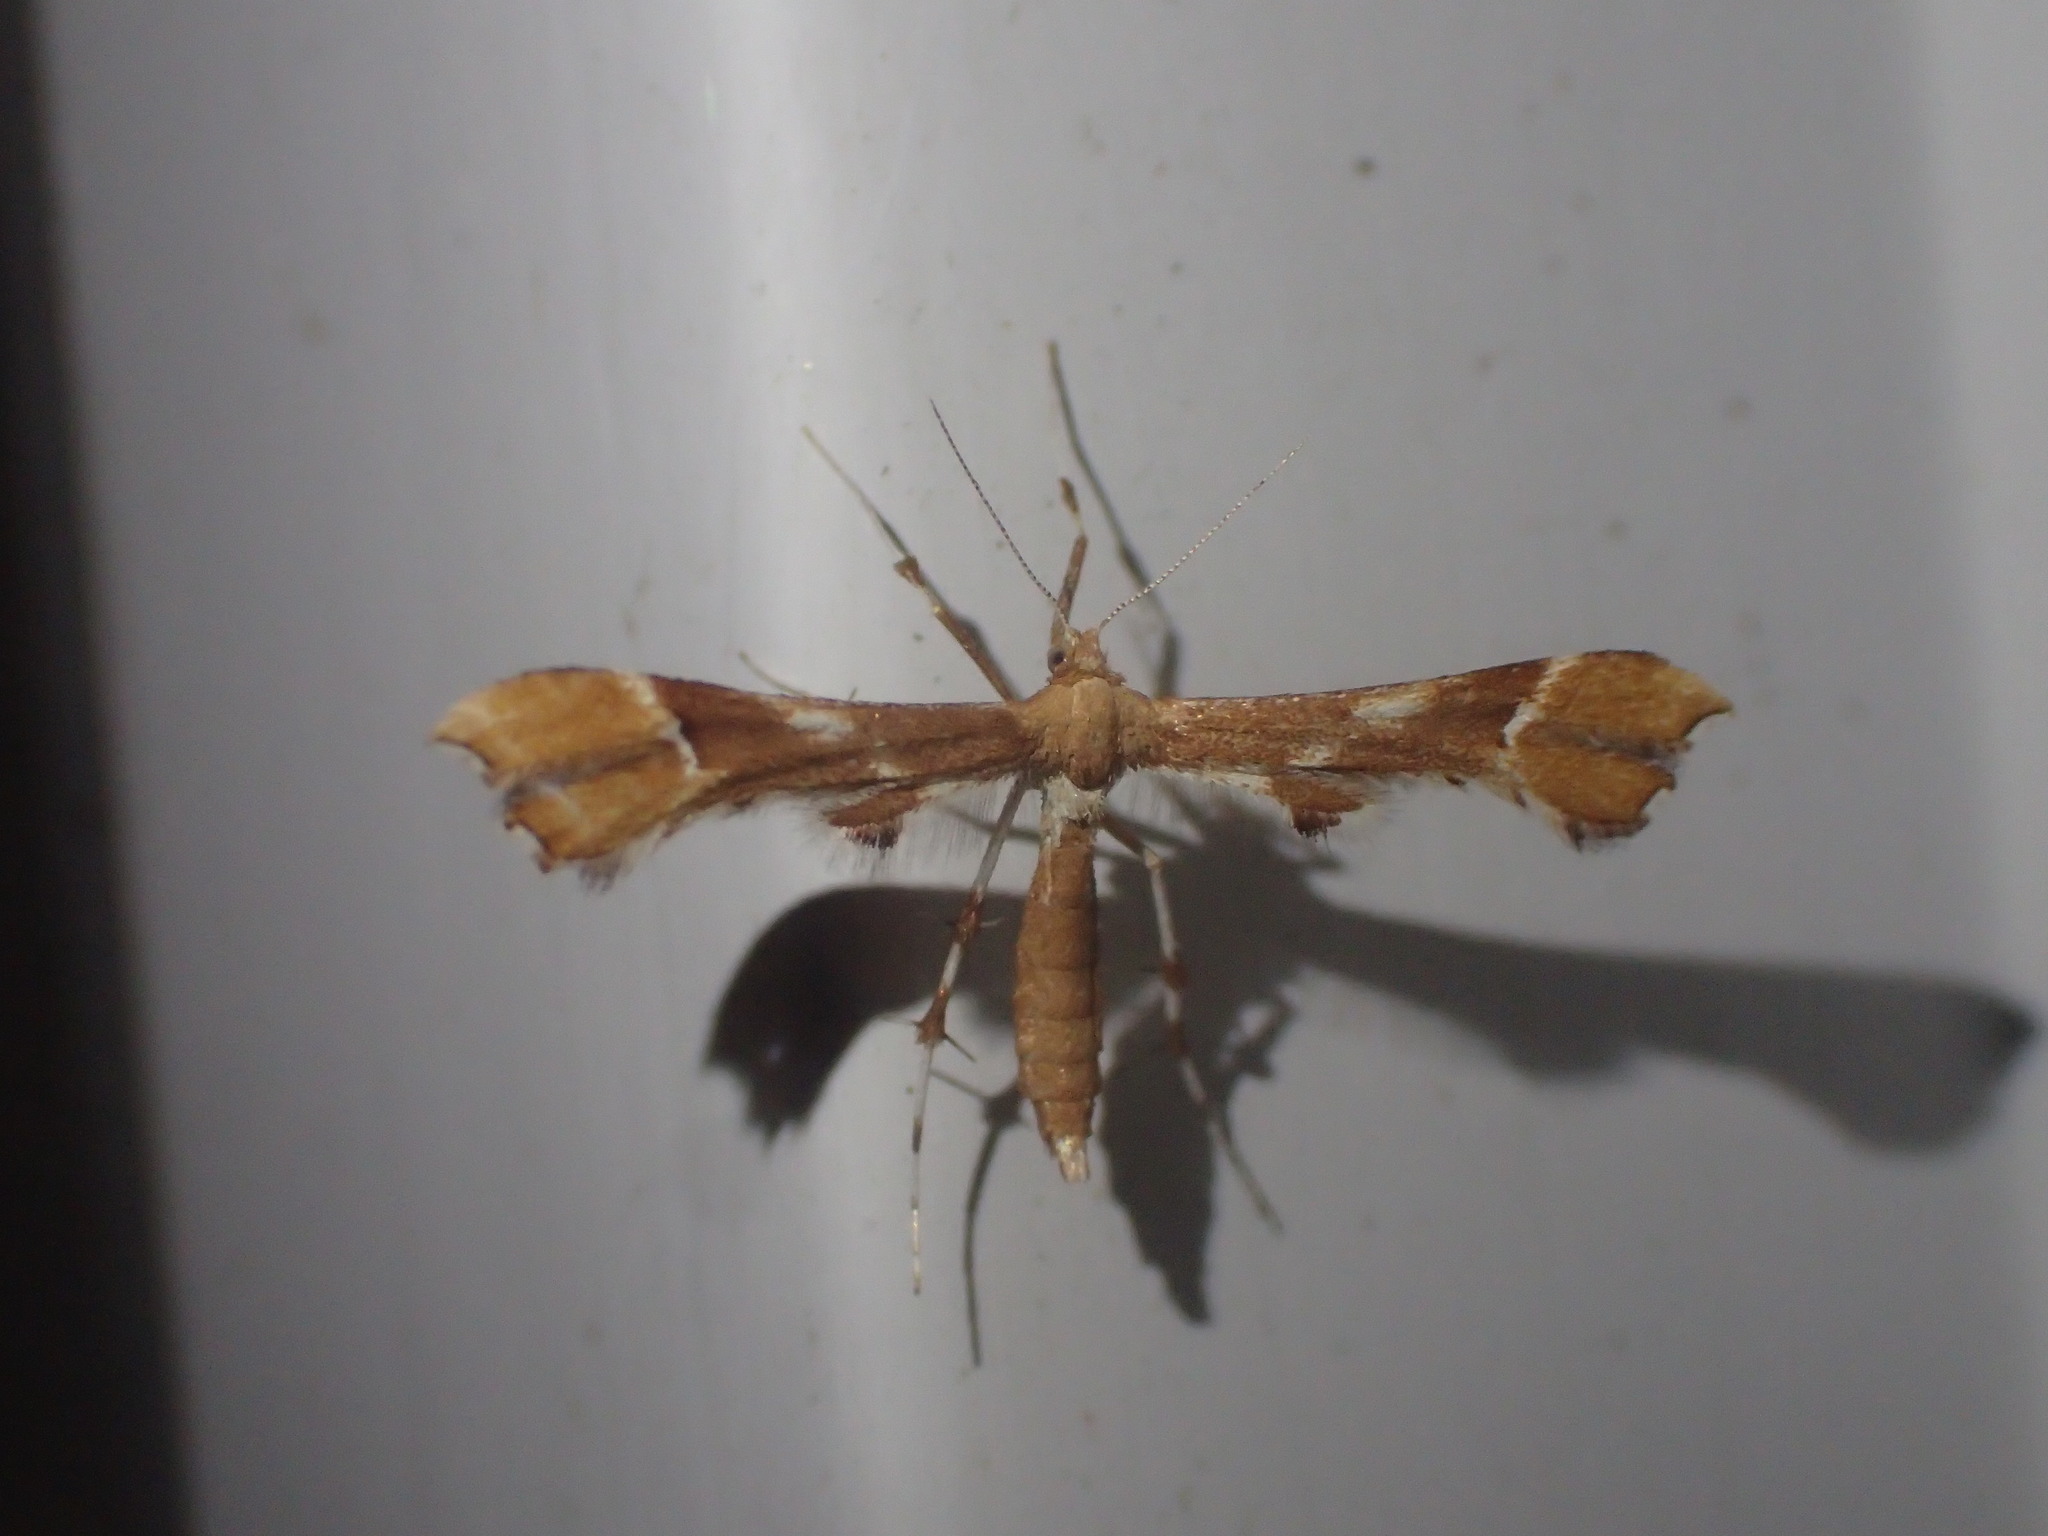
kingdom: Animalia
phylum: Arthropoda
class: Insecta
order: Lepidoptera
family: Pterophoridae
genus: Cnaemidophorus
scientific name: Cnaemidophorus rhododactyla
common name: Rose plume
